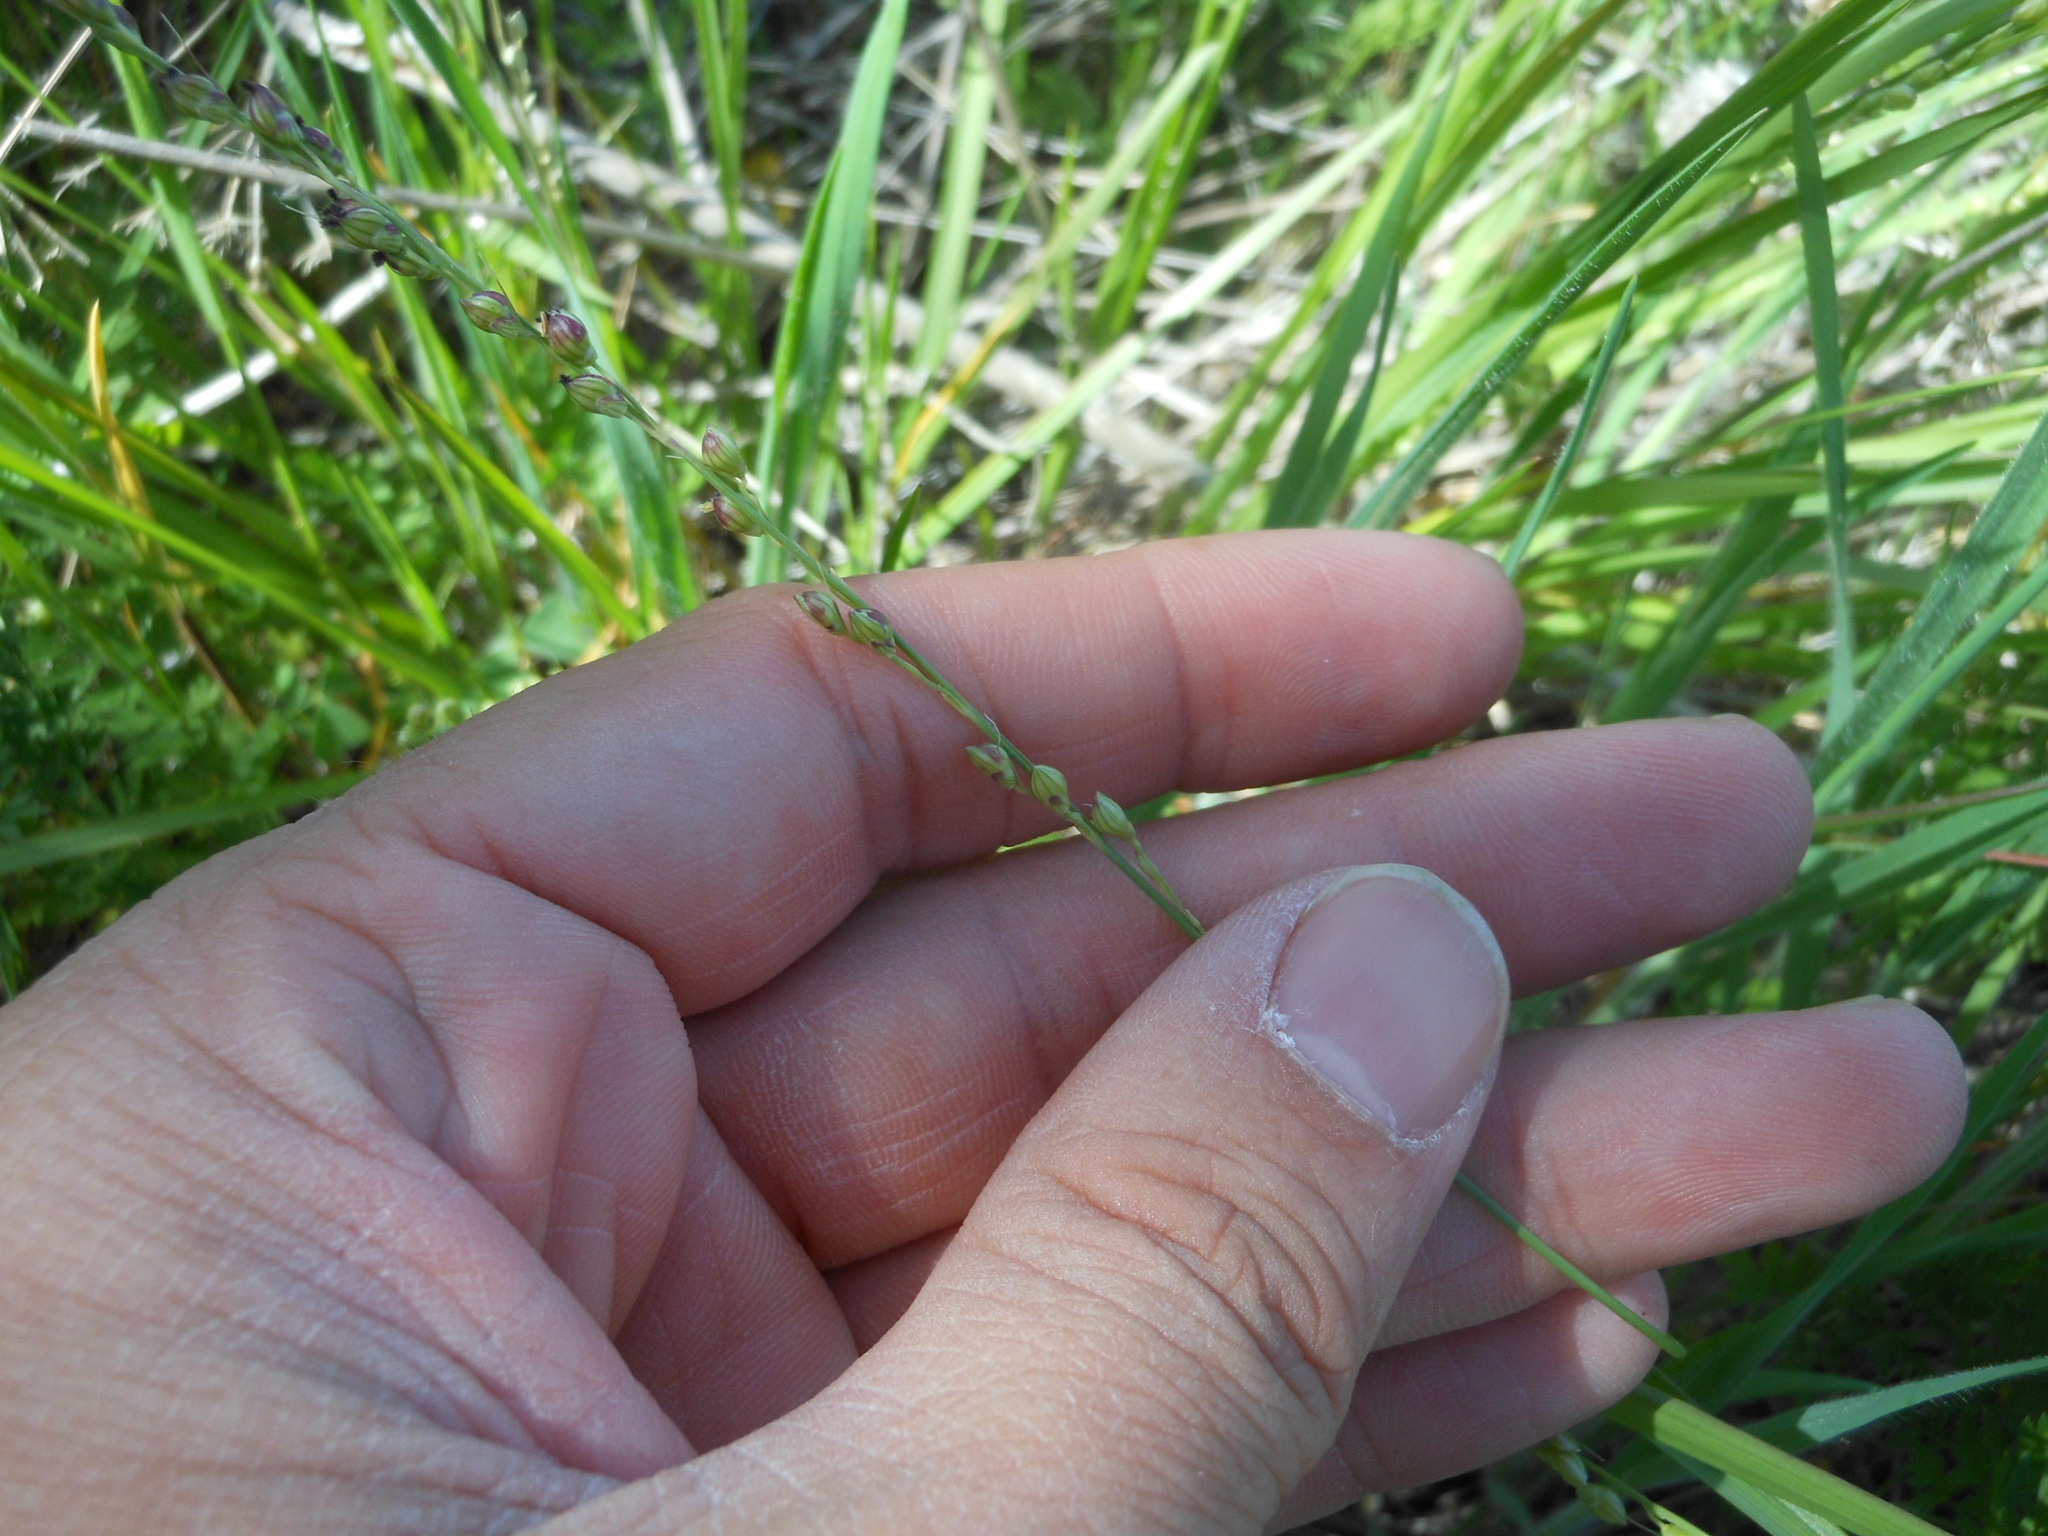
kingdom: Plantae
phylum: Tracheophyta
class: Liliopsida
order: Poales
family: Poaceae
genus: Setaria
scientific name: Setaria reverchonii
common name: Reverchon's bristle grass
